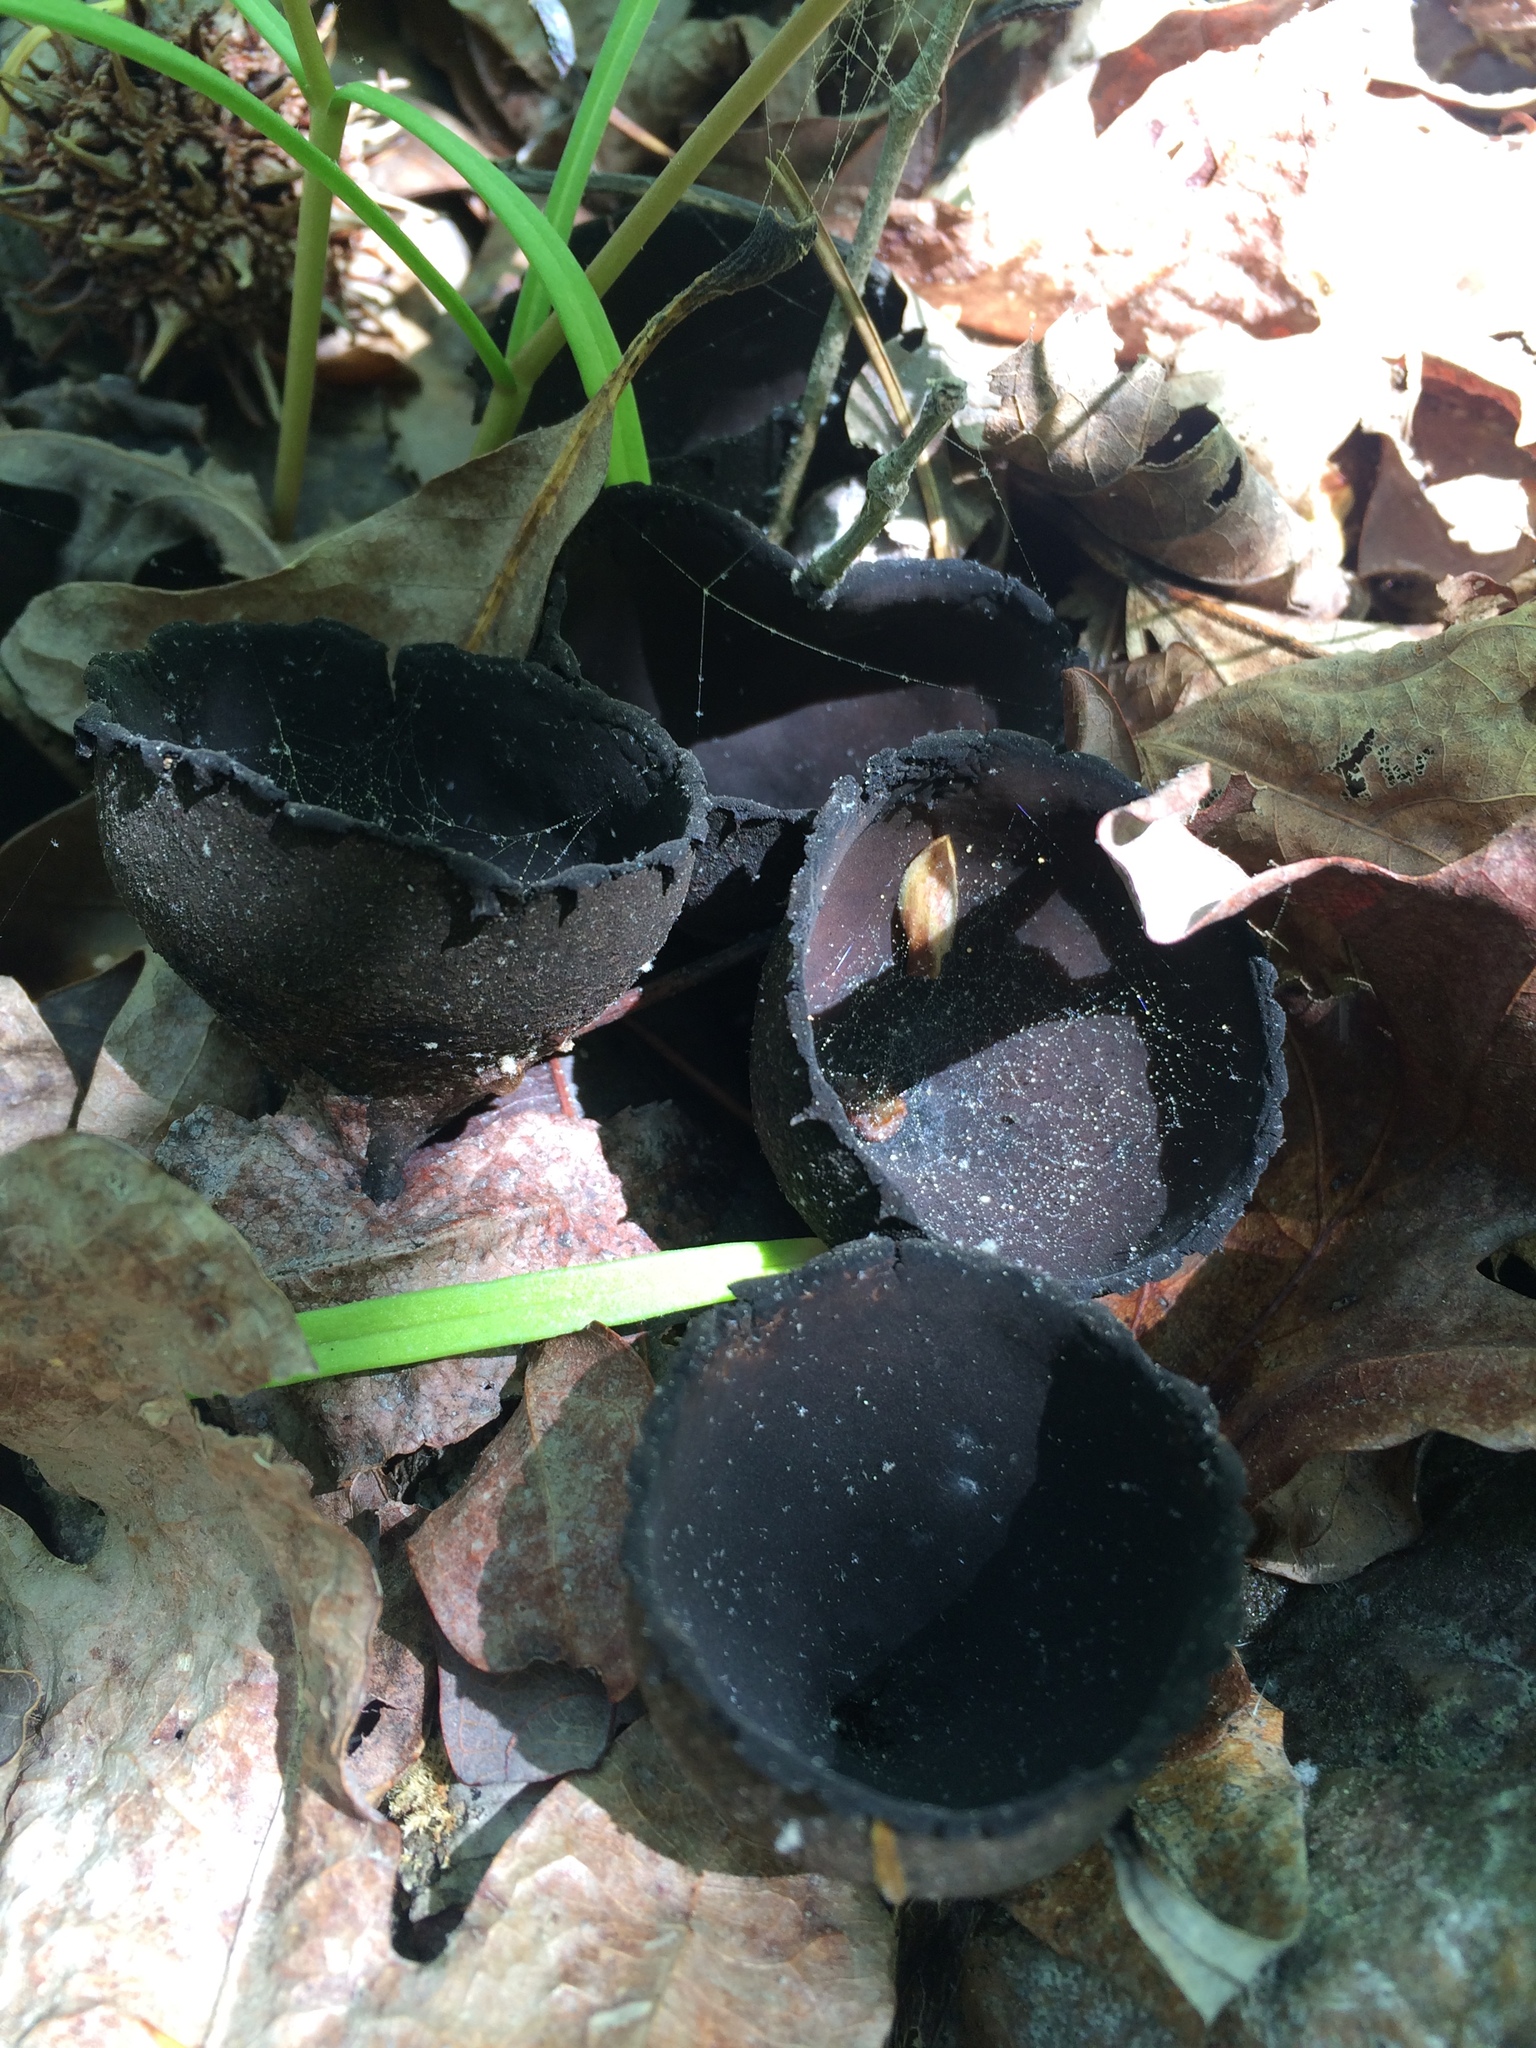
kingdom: Fungi
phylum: Ascomycota
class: Pezizomycetes
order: Pezizales
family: Sarcosomataceae
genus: Urnula
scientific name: Urnula craterium
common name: Devil's urn
